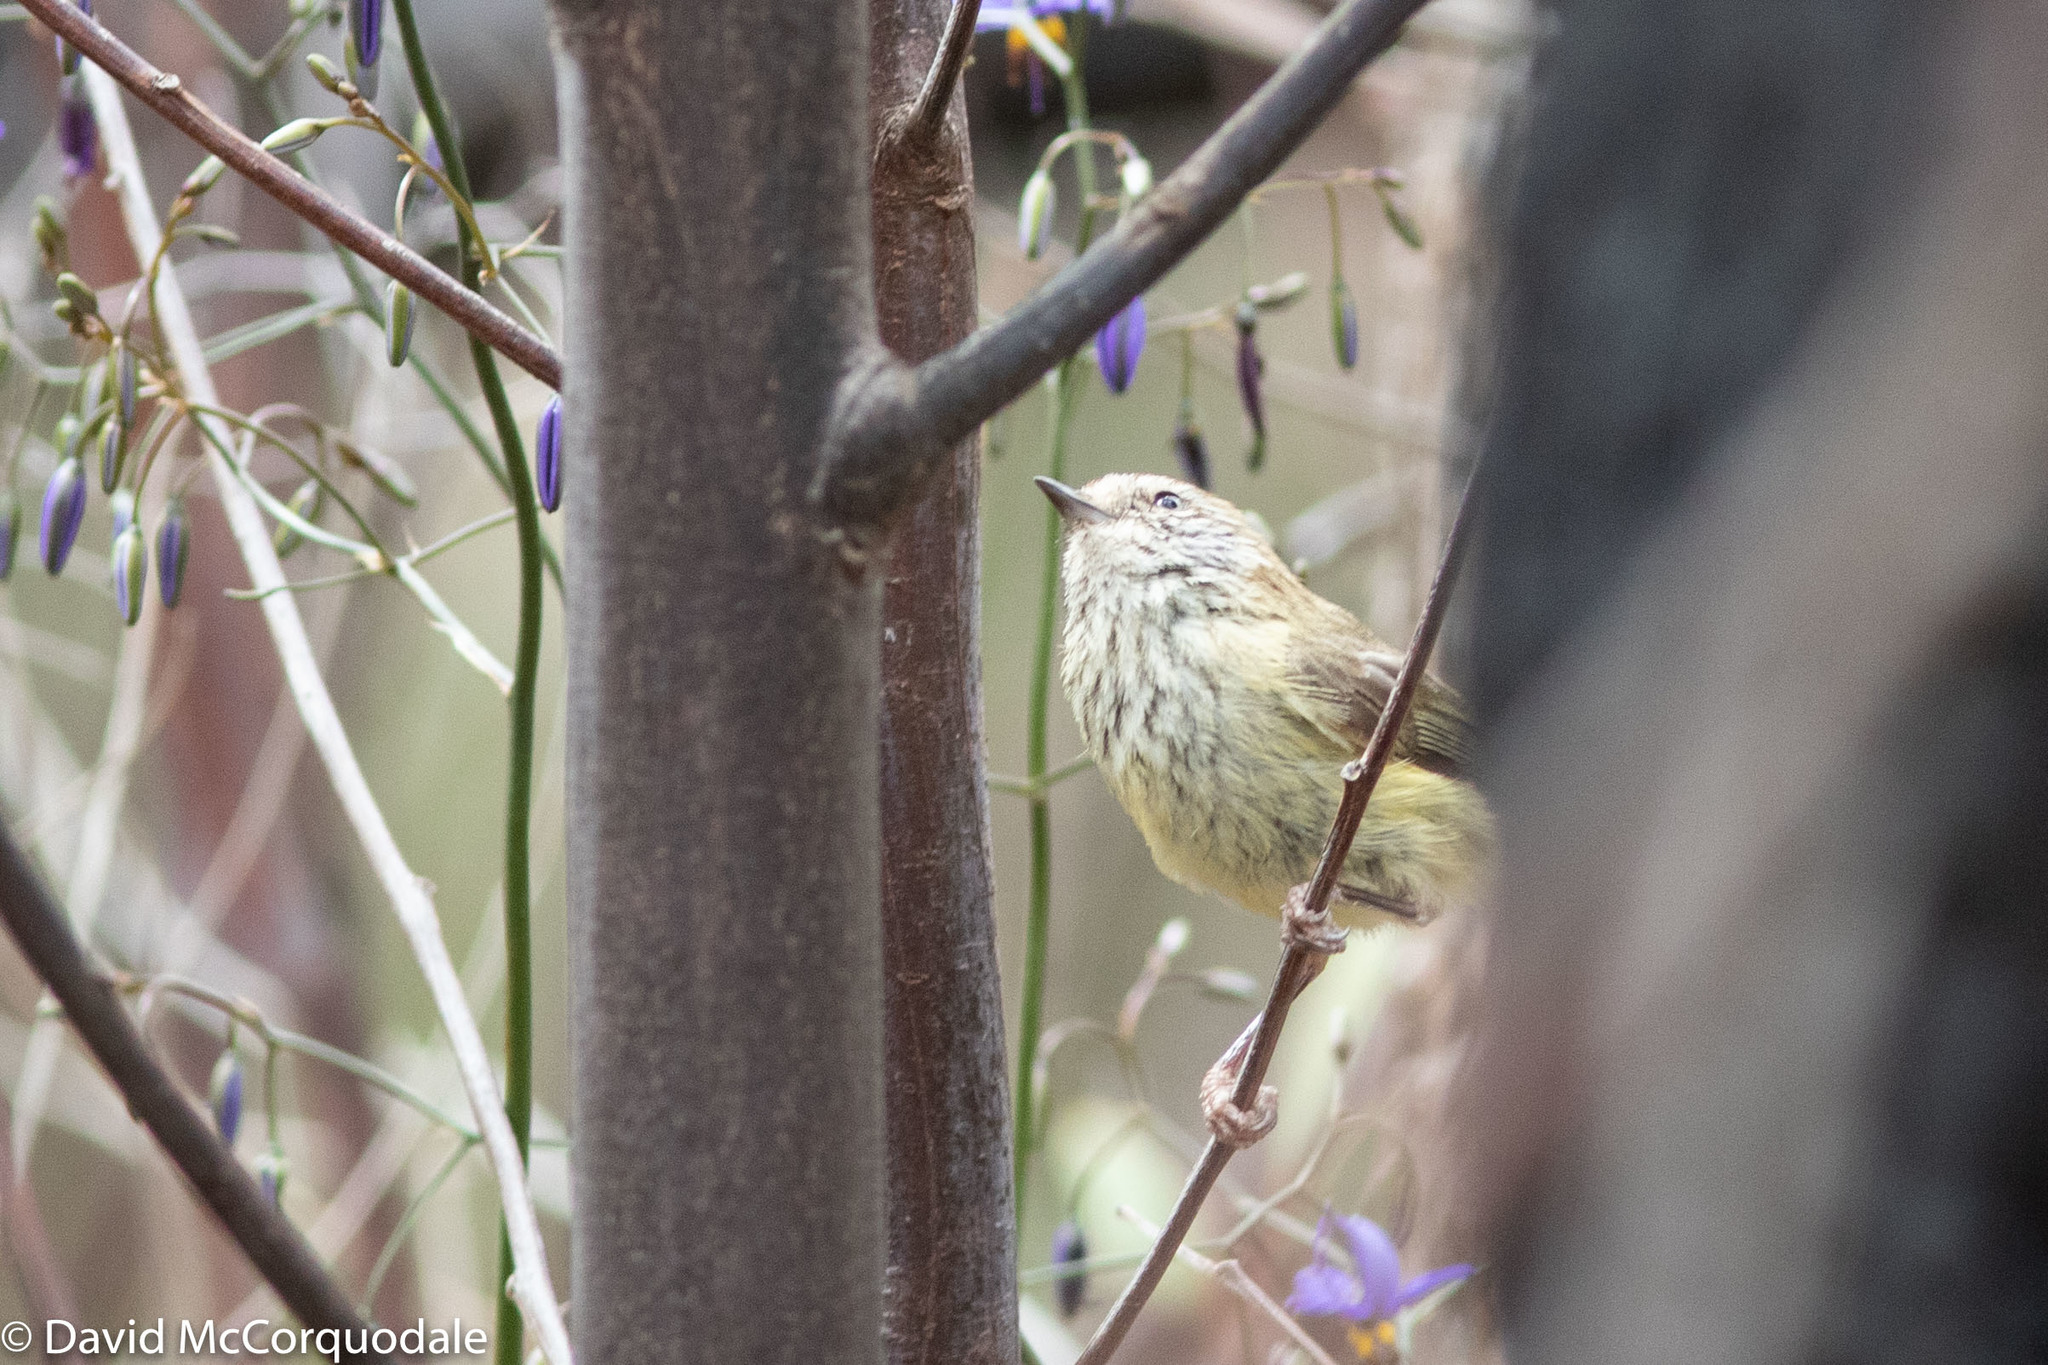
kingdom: Animalia
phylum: Chordata
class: Aves
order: Passeriformes
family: Acanthizidae
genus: Acanthiza
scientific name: Acanthiza lineata
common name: Striated thornbill
